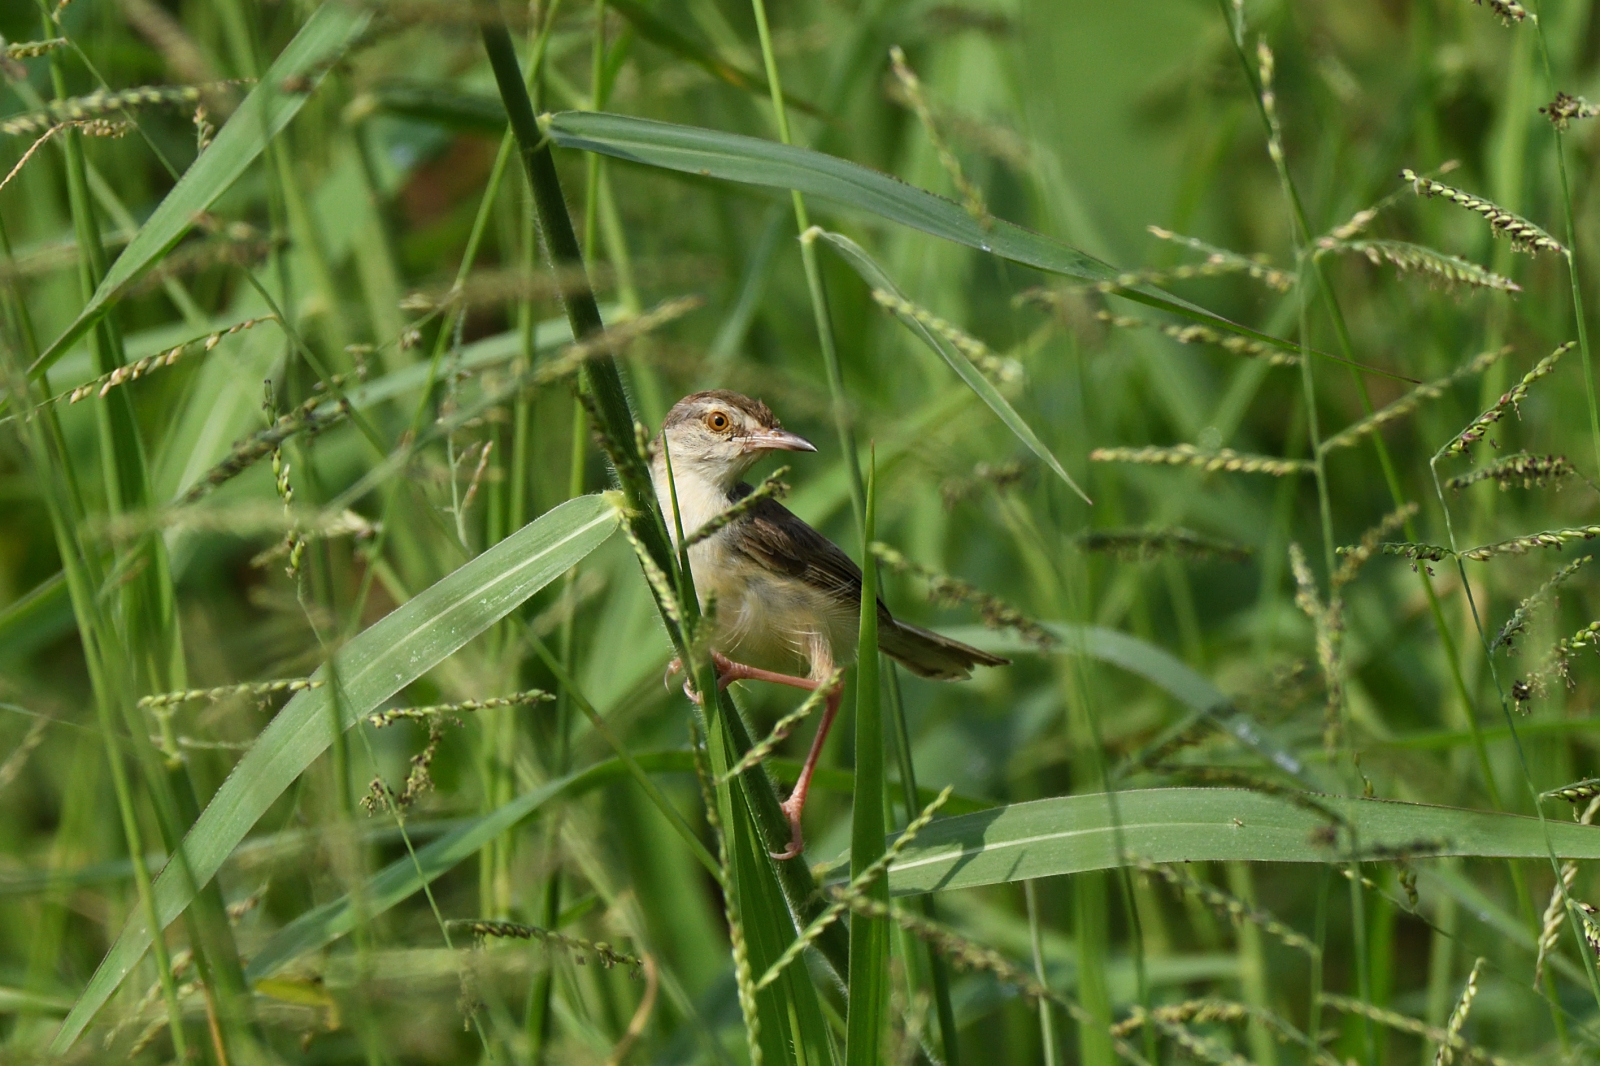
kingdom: Animalia
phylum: Chordata
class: Aves
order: Passeriformes
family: Cisticolidae
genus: Prinia
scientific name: Prinia inornata
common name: Plain prinia
